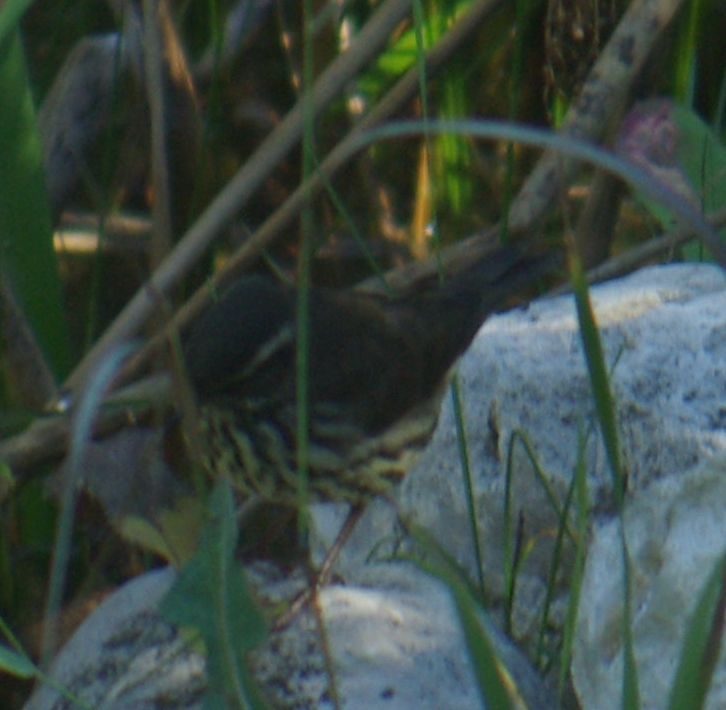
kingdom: Animalia
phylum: Chordata
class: Aves
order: Passeriformes
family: Parulidae
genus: Parkesia
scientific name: Parkesia noveboracensis
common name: Northern waterthrush
